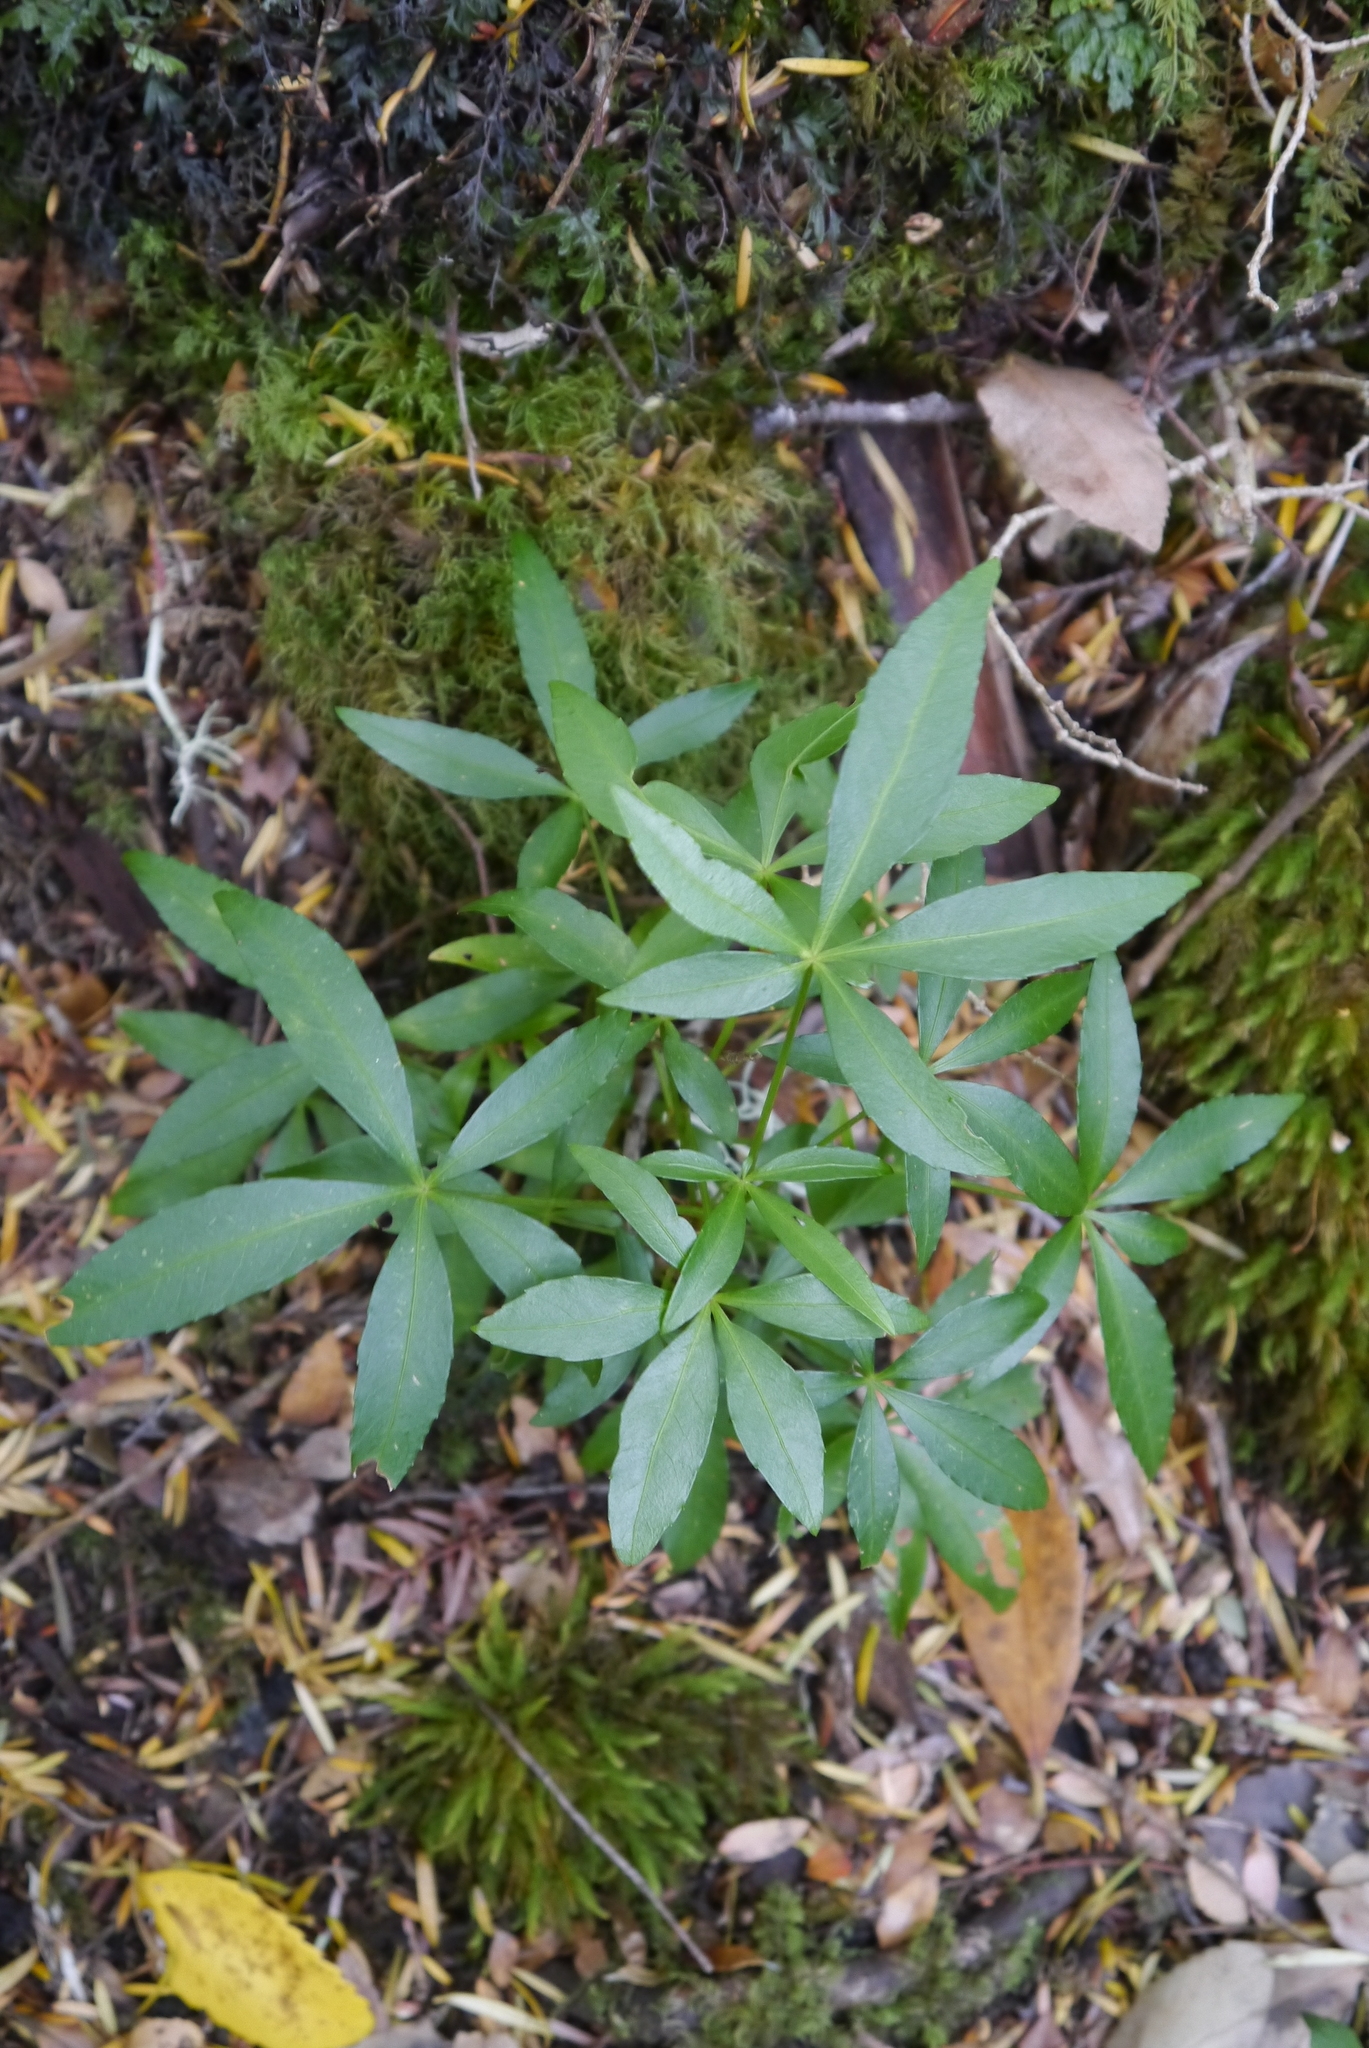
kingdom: Plantae
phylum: Tracheophyta
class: Magnoliopsida
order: Apiales
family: Araliaceae
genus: Raukaua
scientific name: Raukaua laetevirens
